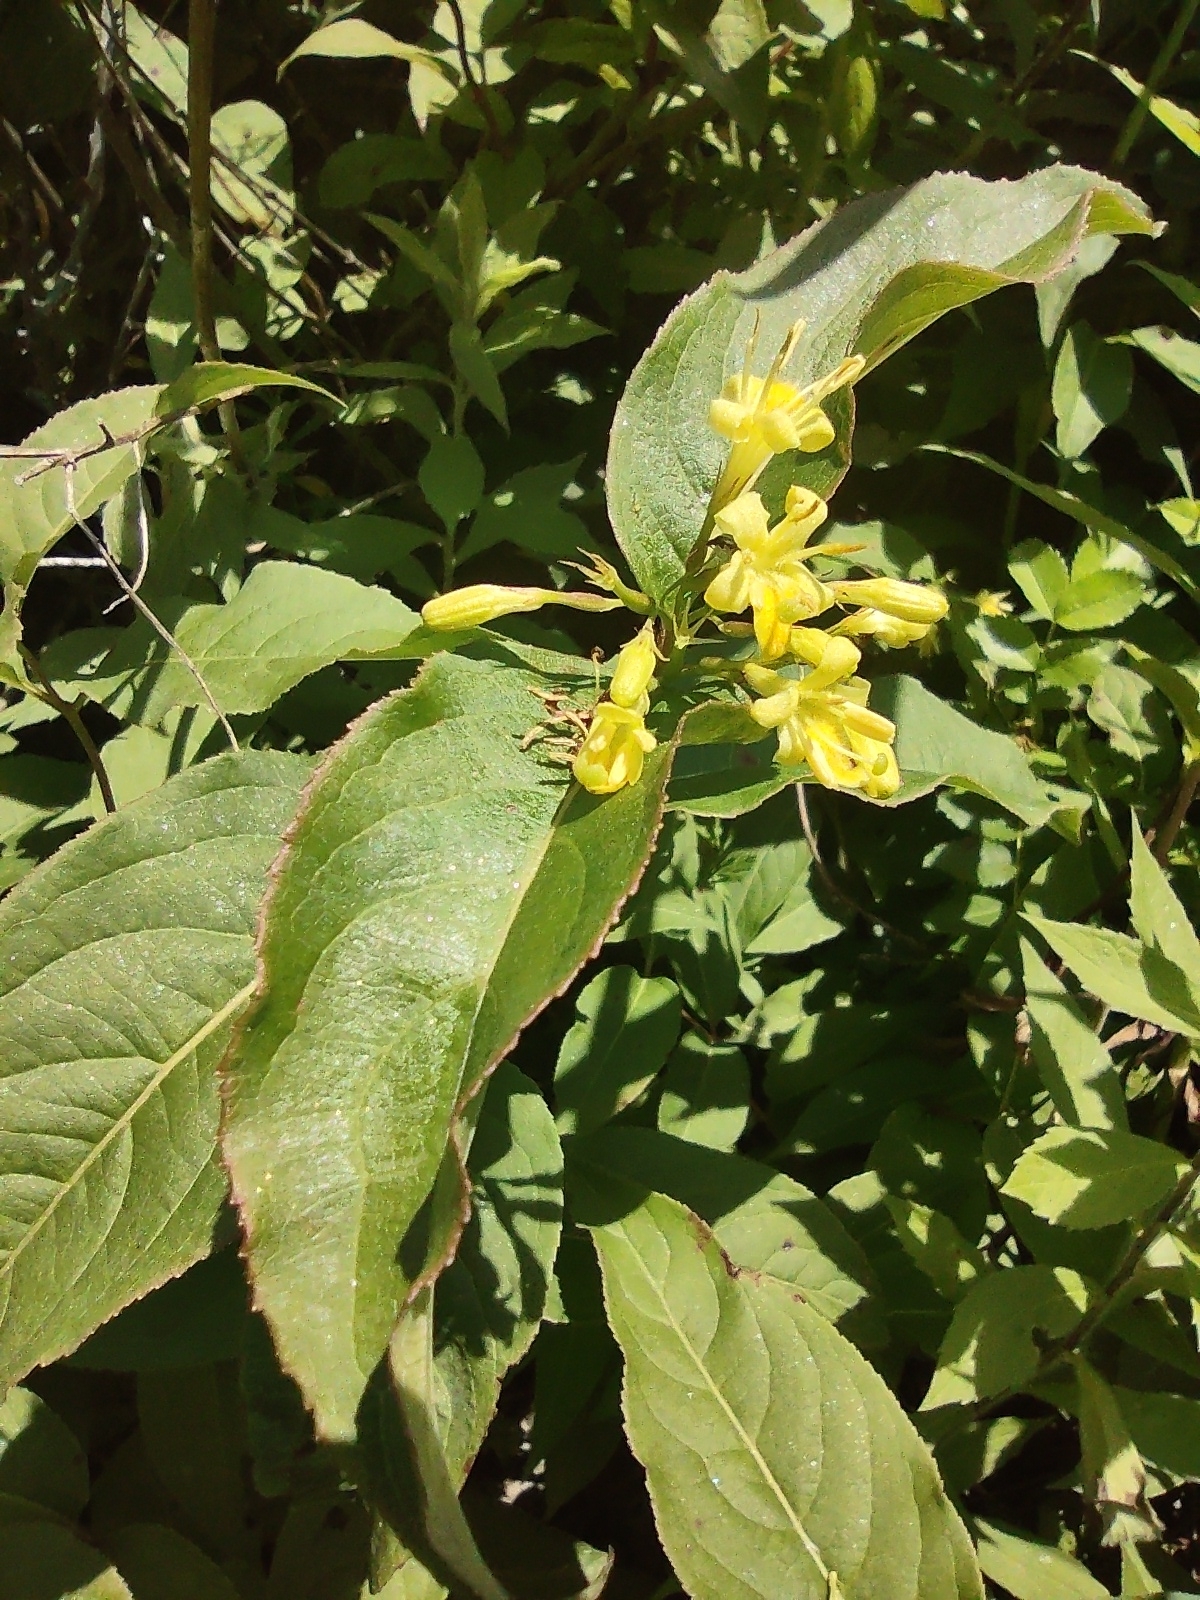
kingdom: Plantae
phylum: Tracheophyta
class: Magnoliopsida
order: Dipsacales
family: Caprifoliaceae
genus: Diervilla
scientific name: Diervilla lonicera
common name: Bush-honeysuckle
